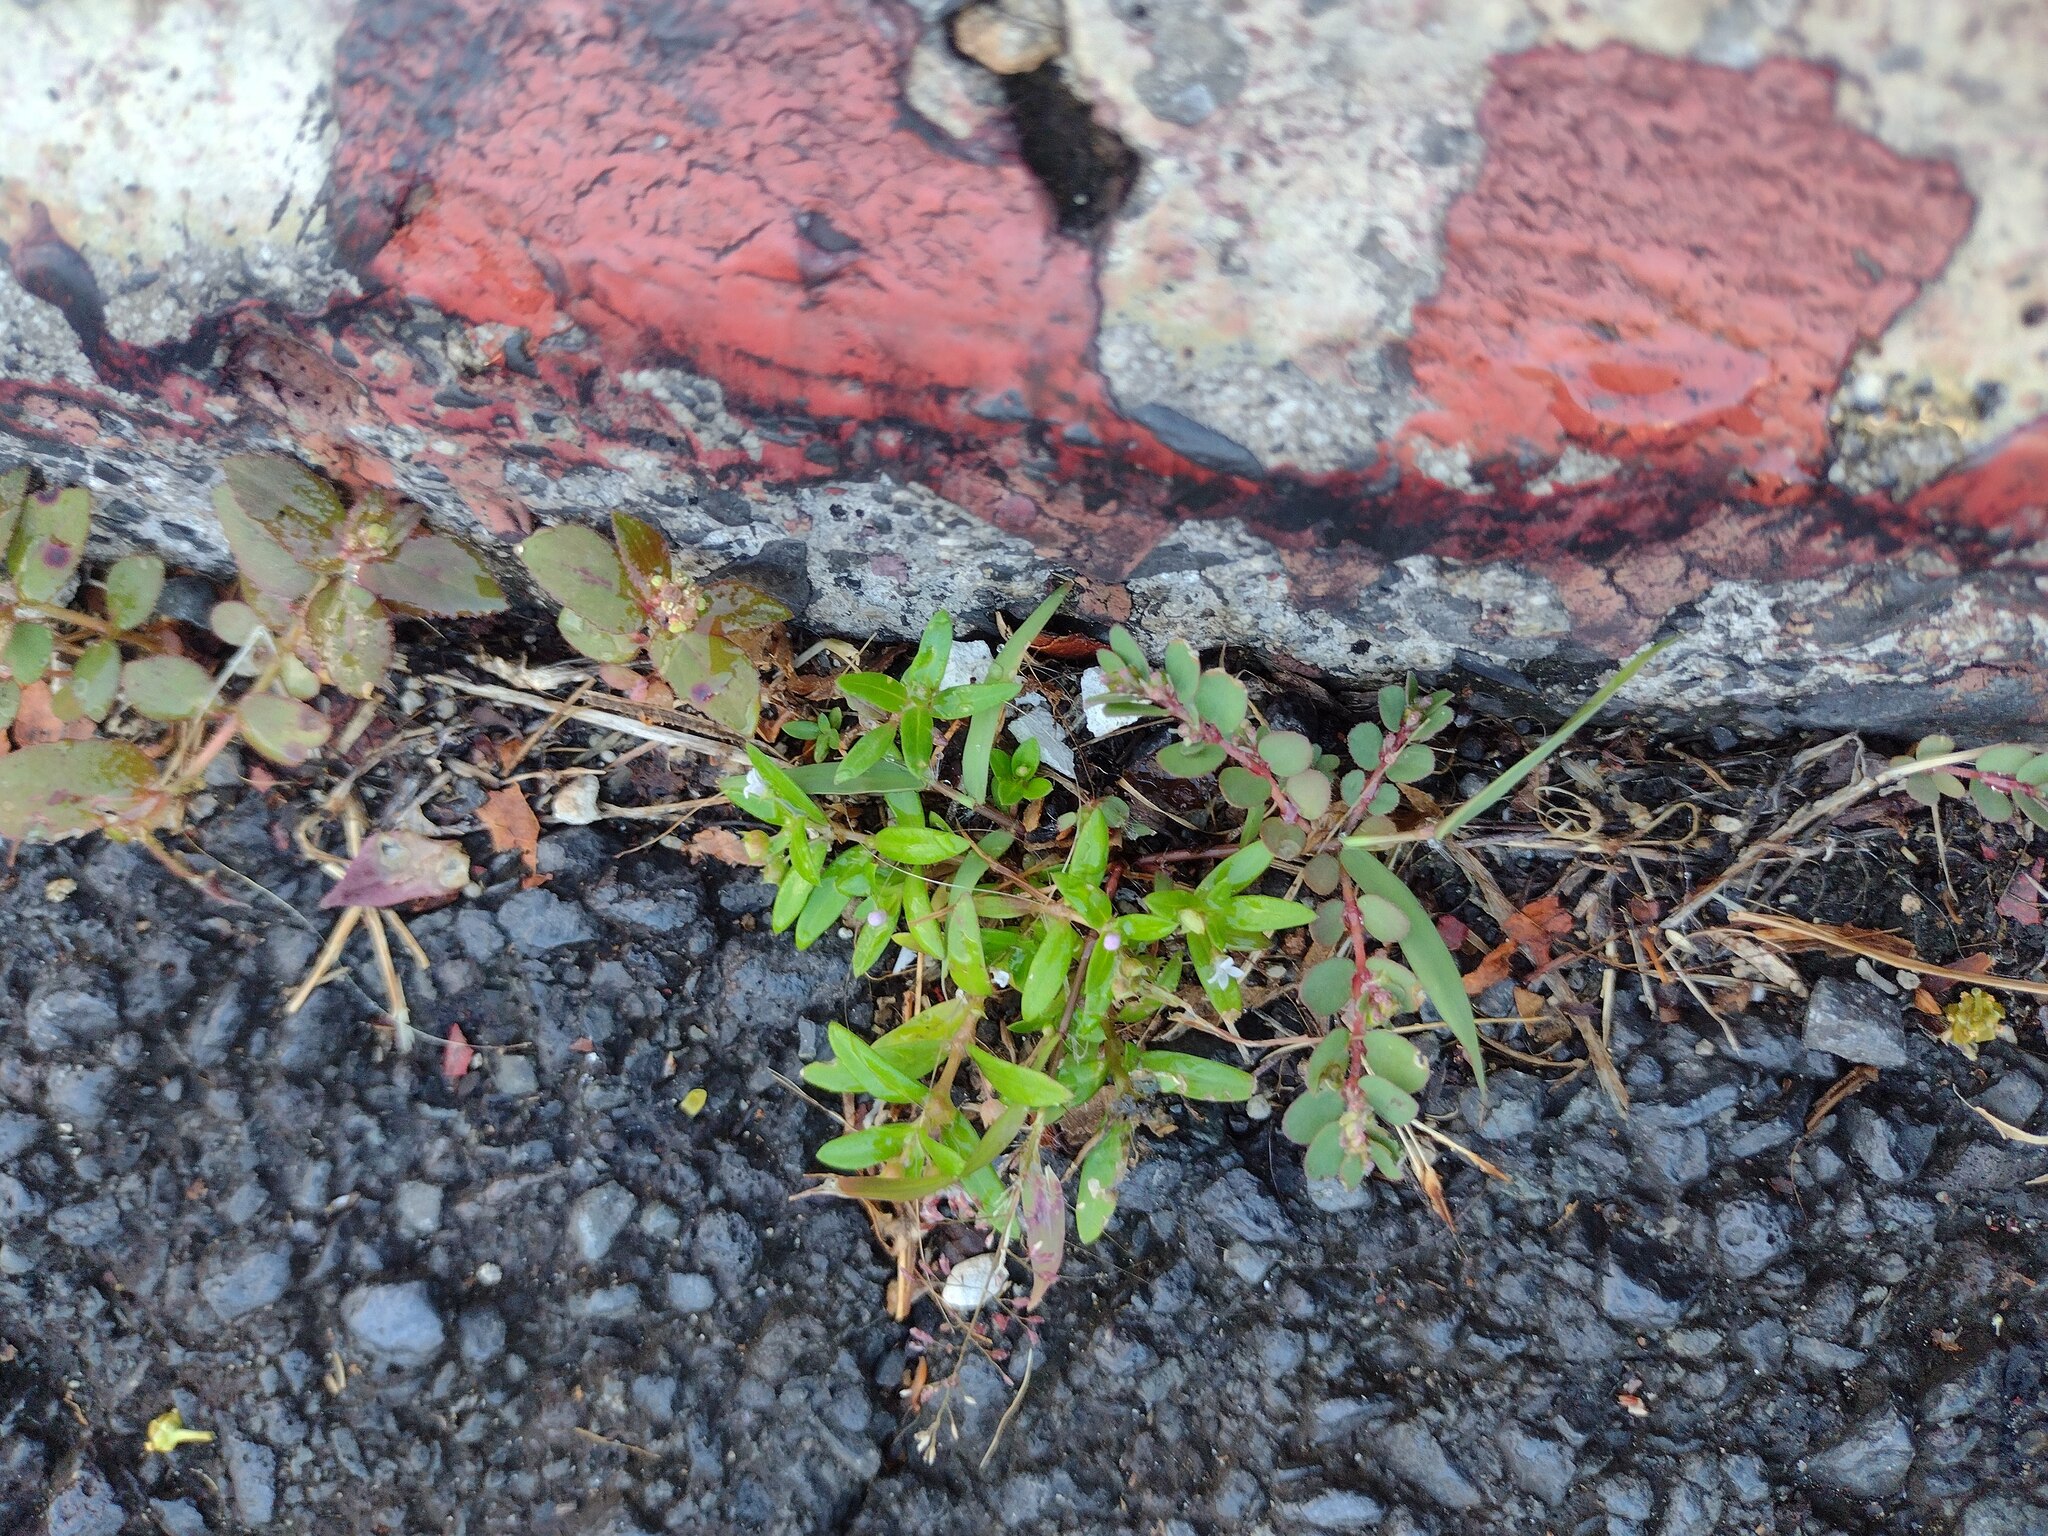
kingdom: Plantae
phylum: Tracheophyta
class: Magnoliopsida
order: Gentianales
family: Rubiaceae
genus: Oldenlandia
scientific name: Oldenlandia corymbosa
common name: Flat-top mille graines
